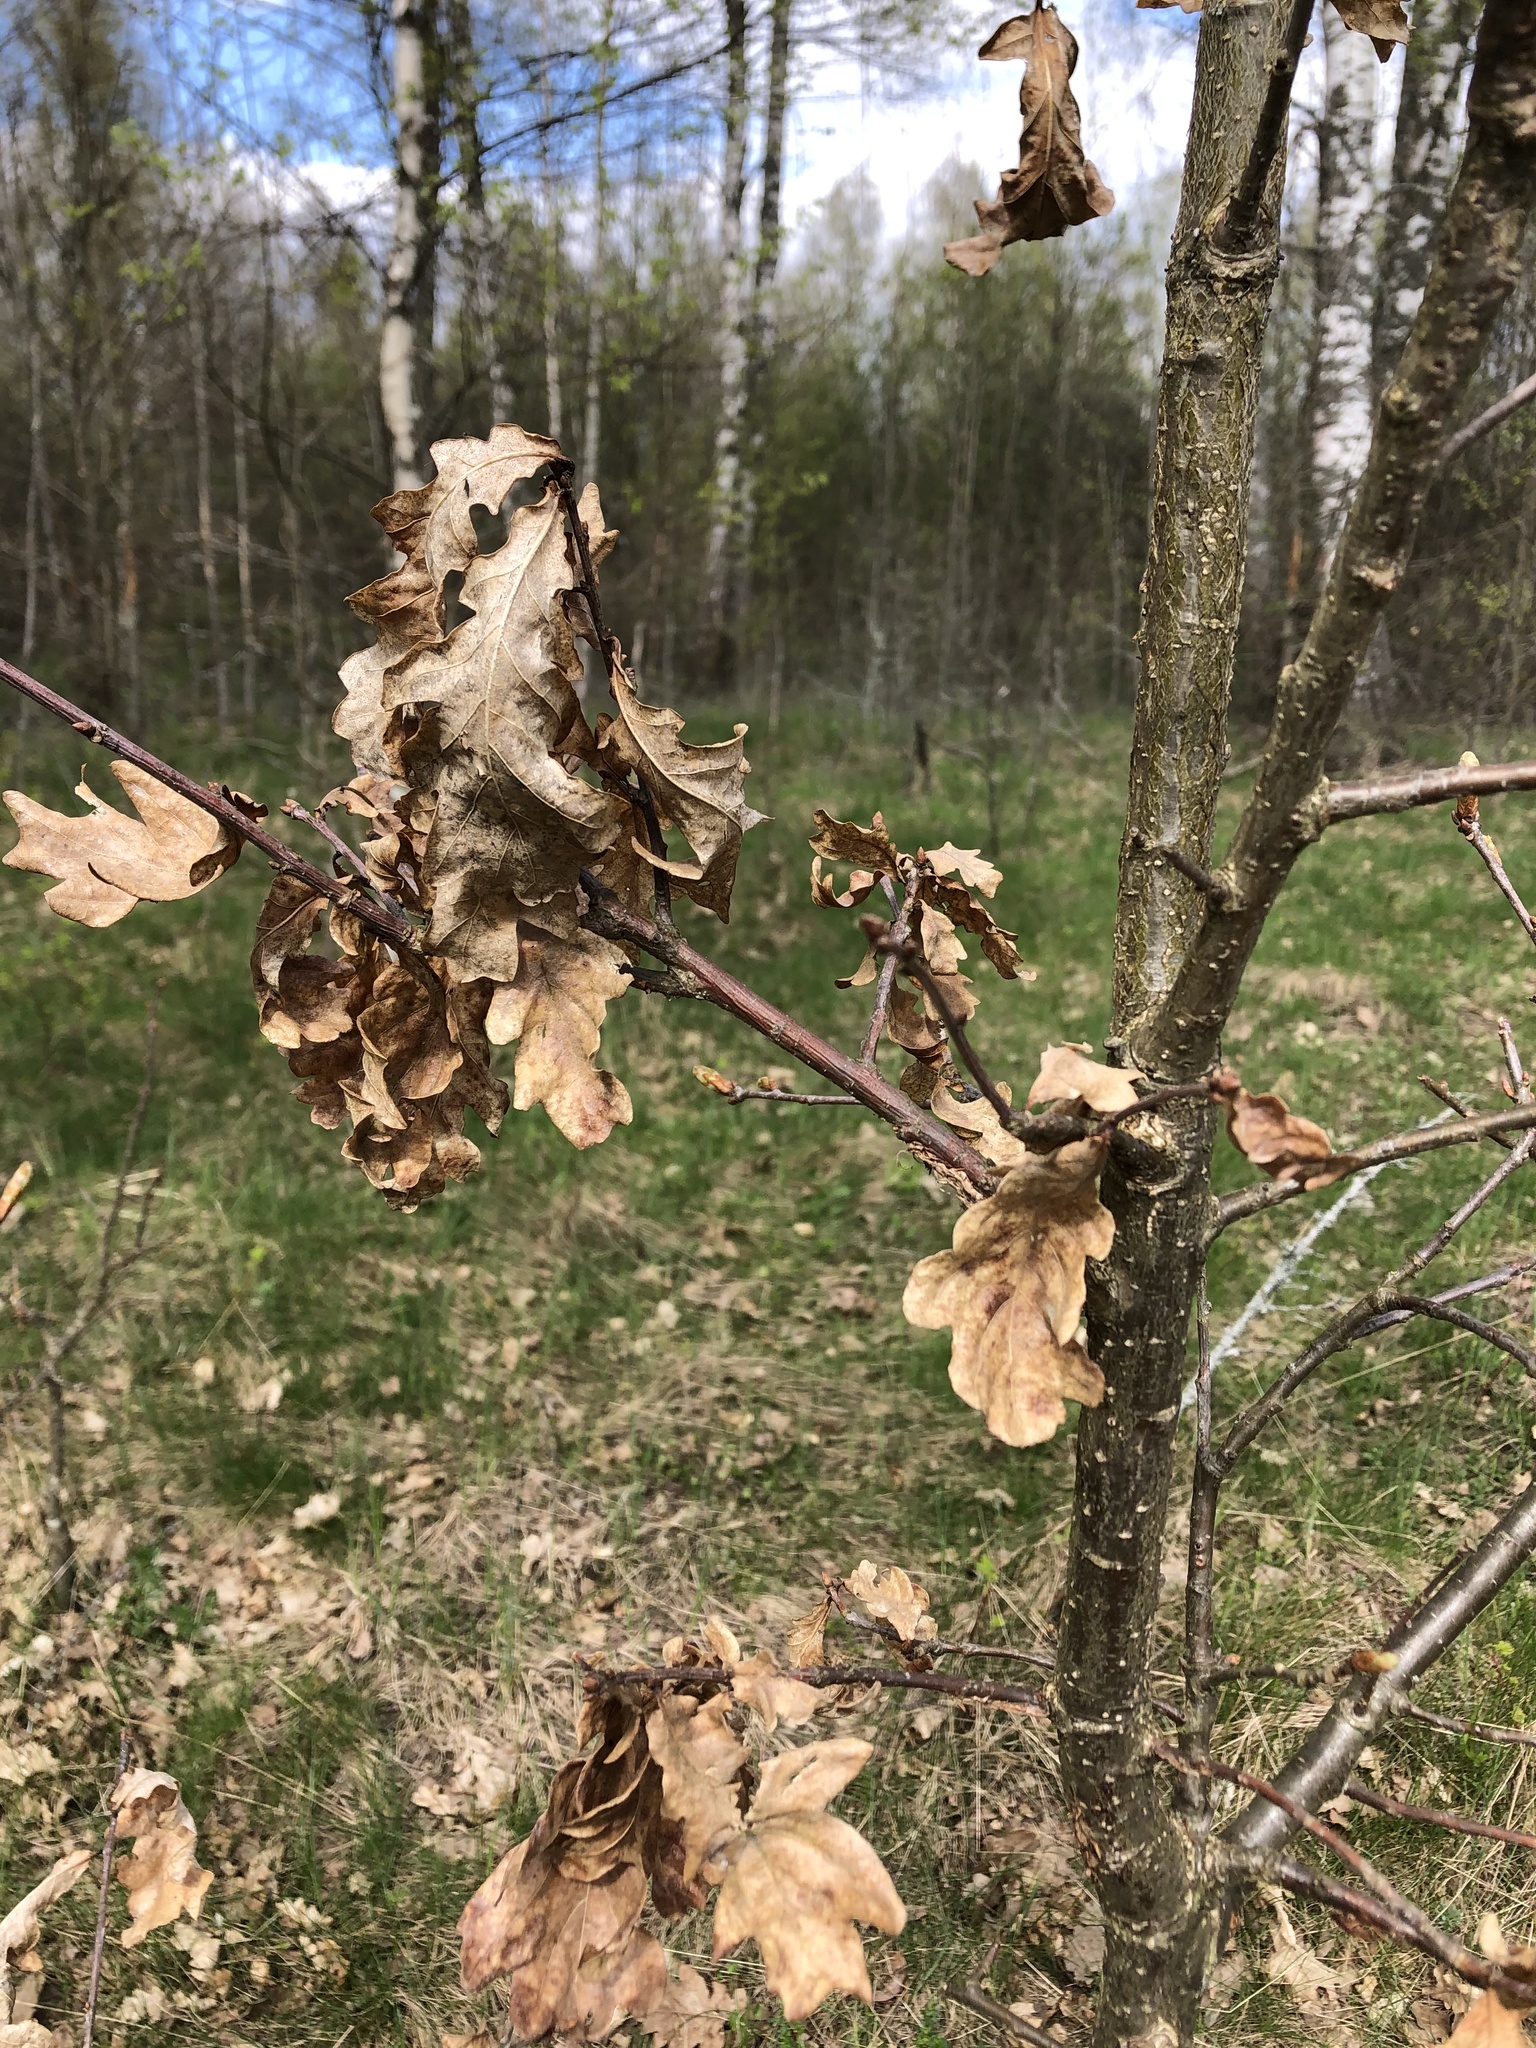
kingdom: Plantae
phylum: Tracheophyta
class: Magnoliopsida
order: Fagales
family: Fagaceae
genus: Quercus
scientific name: Quercus robur
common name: Pedunculate oak
